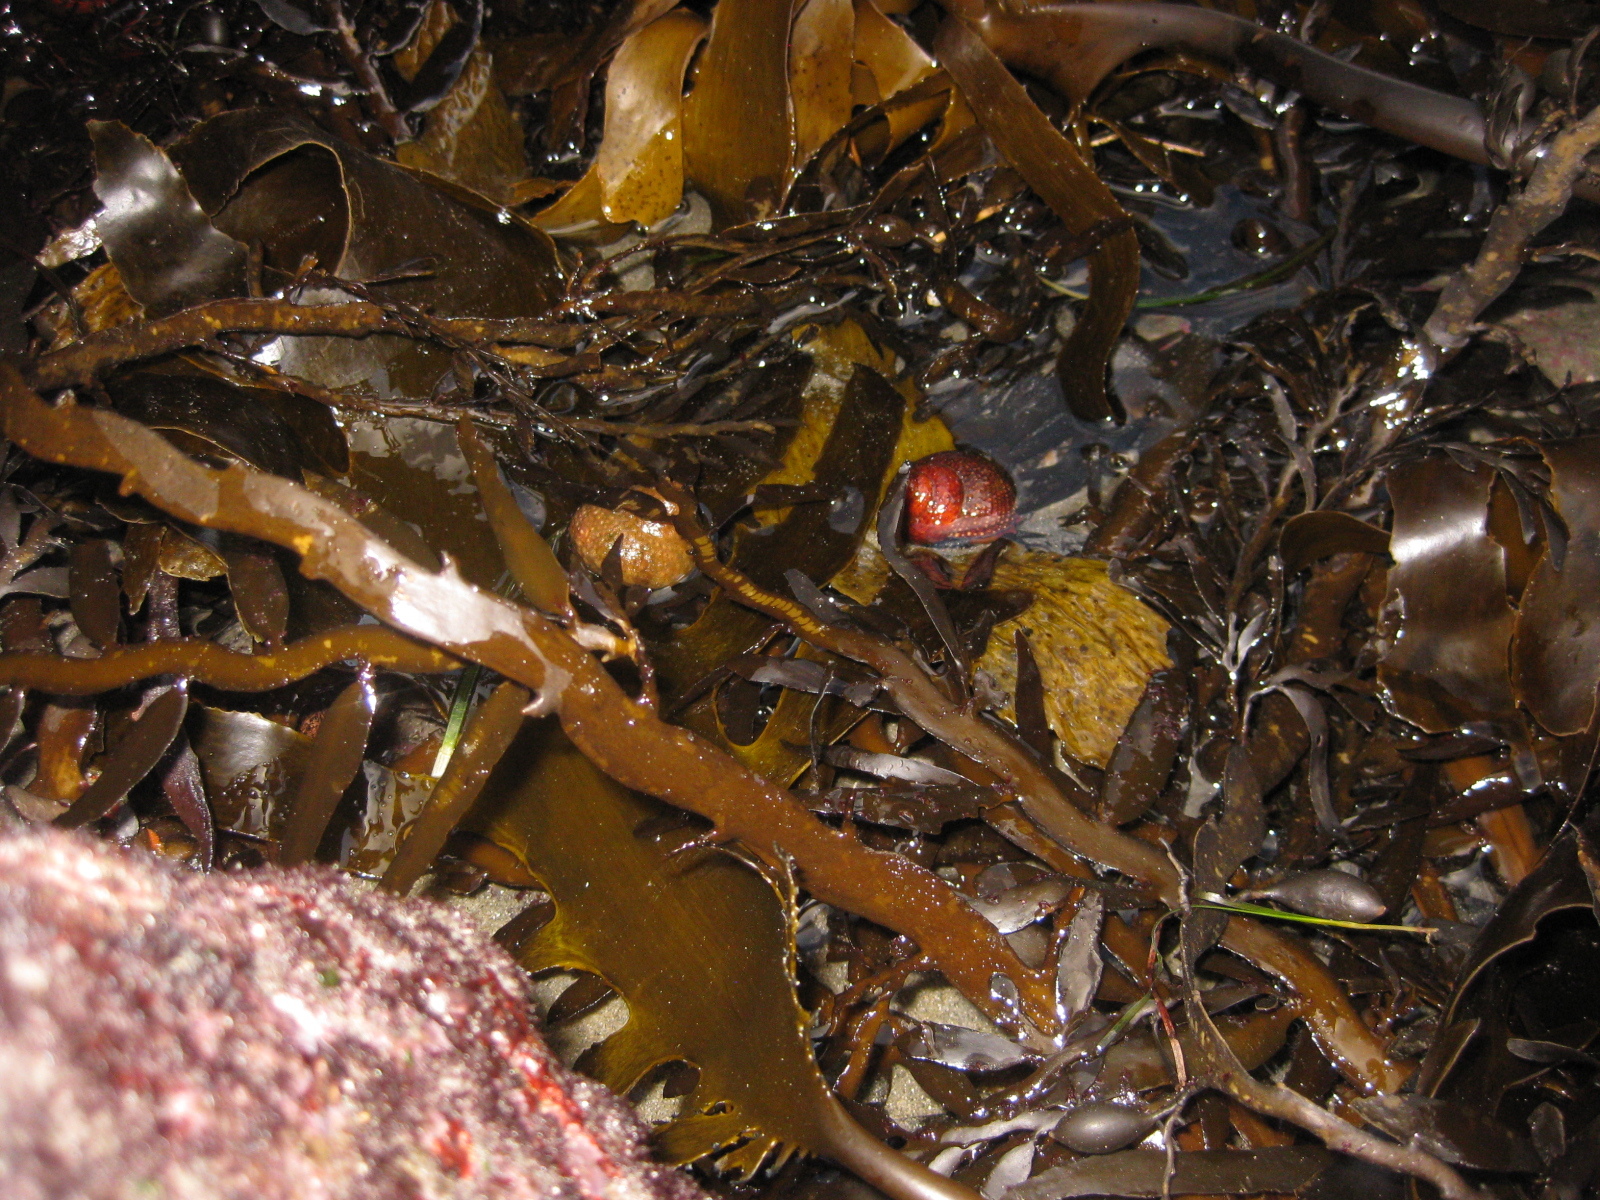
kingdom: Animalia
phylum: Mollusca
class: Gastropoda
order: Trochida
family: Calliostomatidae
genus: Maurea
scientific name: Maurea punctulata
